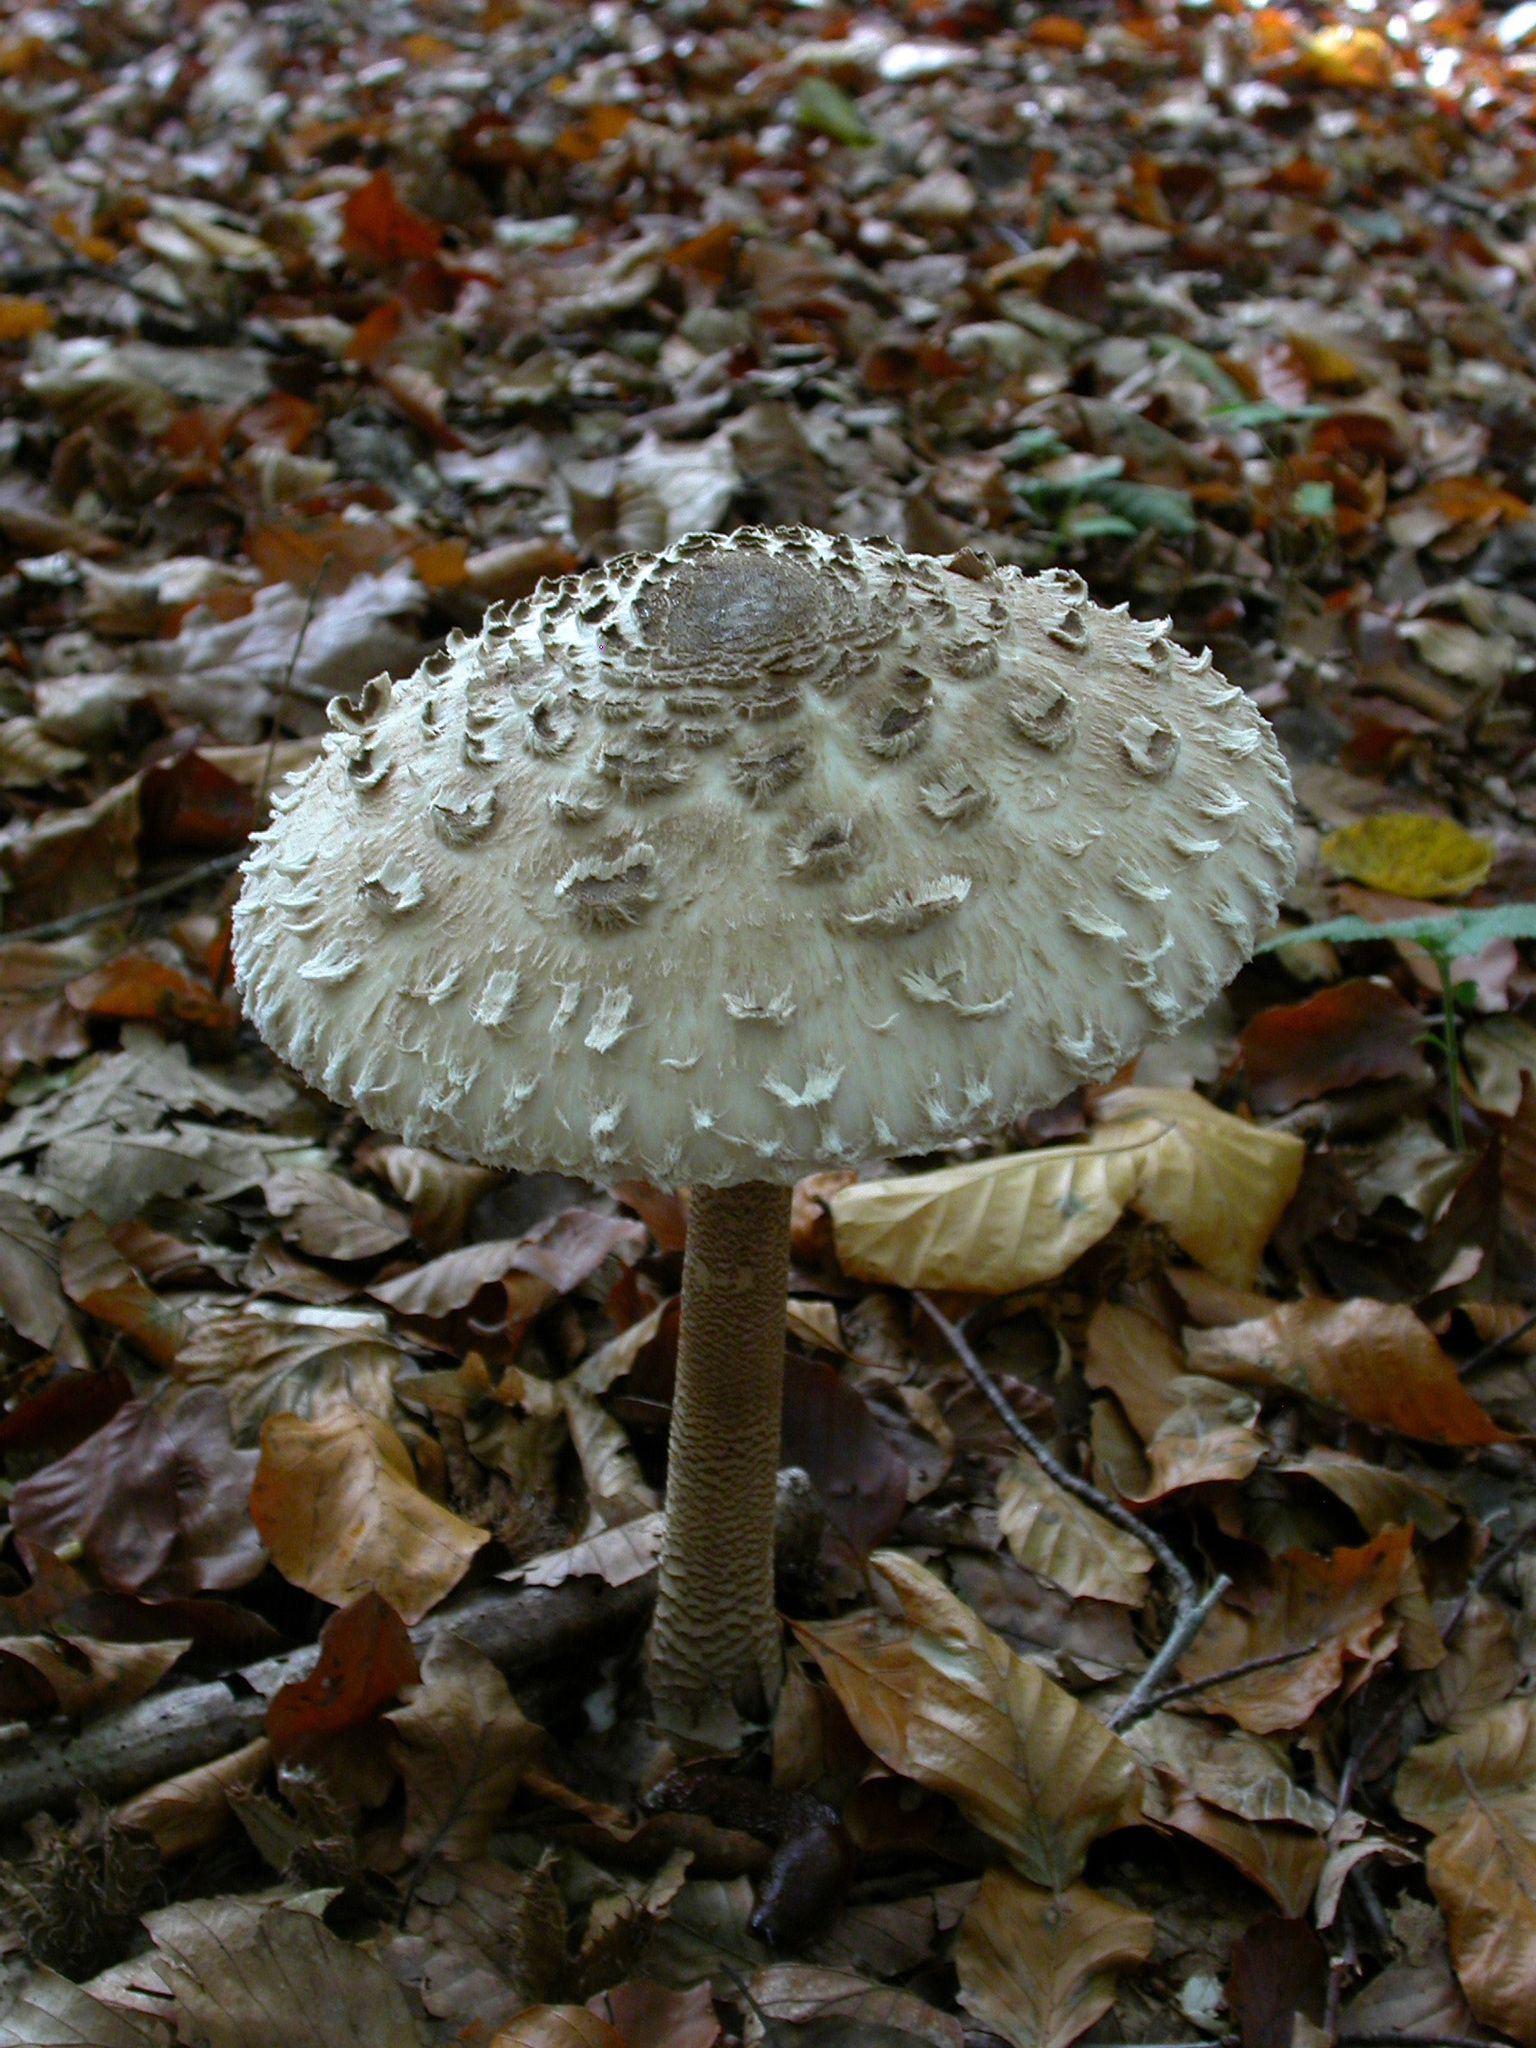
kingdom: Fungi
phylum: Basidiomycota
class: Agaricomycetes
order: Agaricales
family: Agaricaceae
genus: Macrolepiota
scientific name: Macrolepiota procera
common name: Parasol
